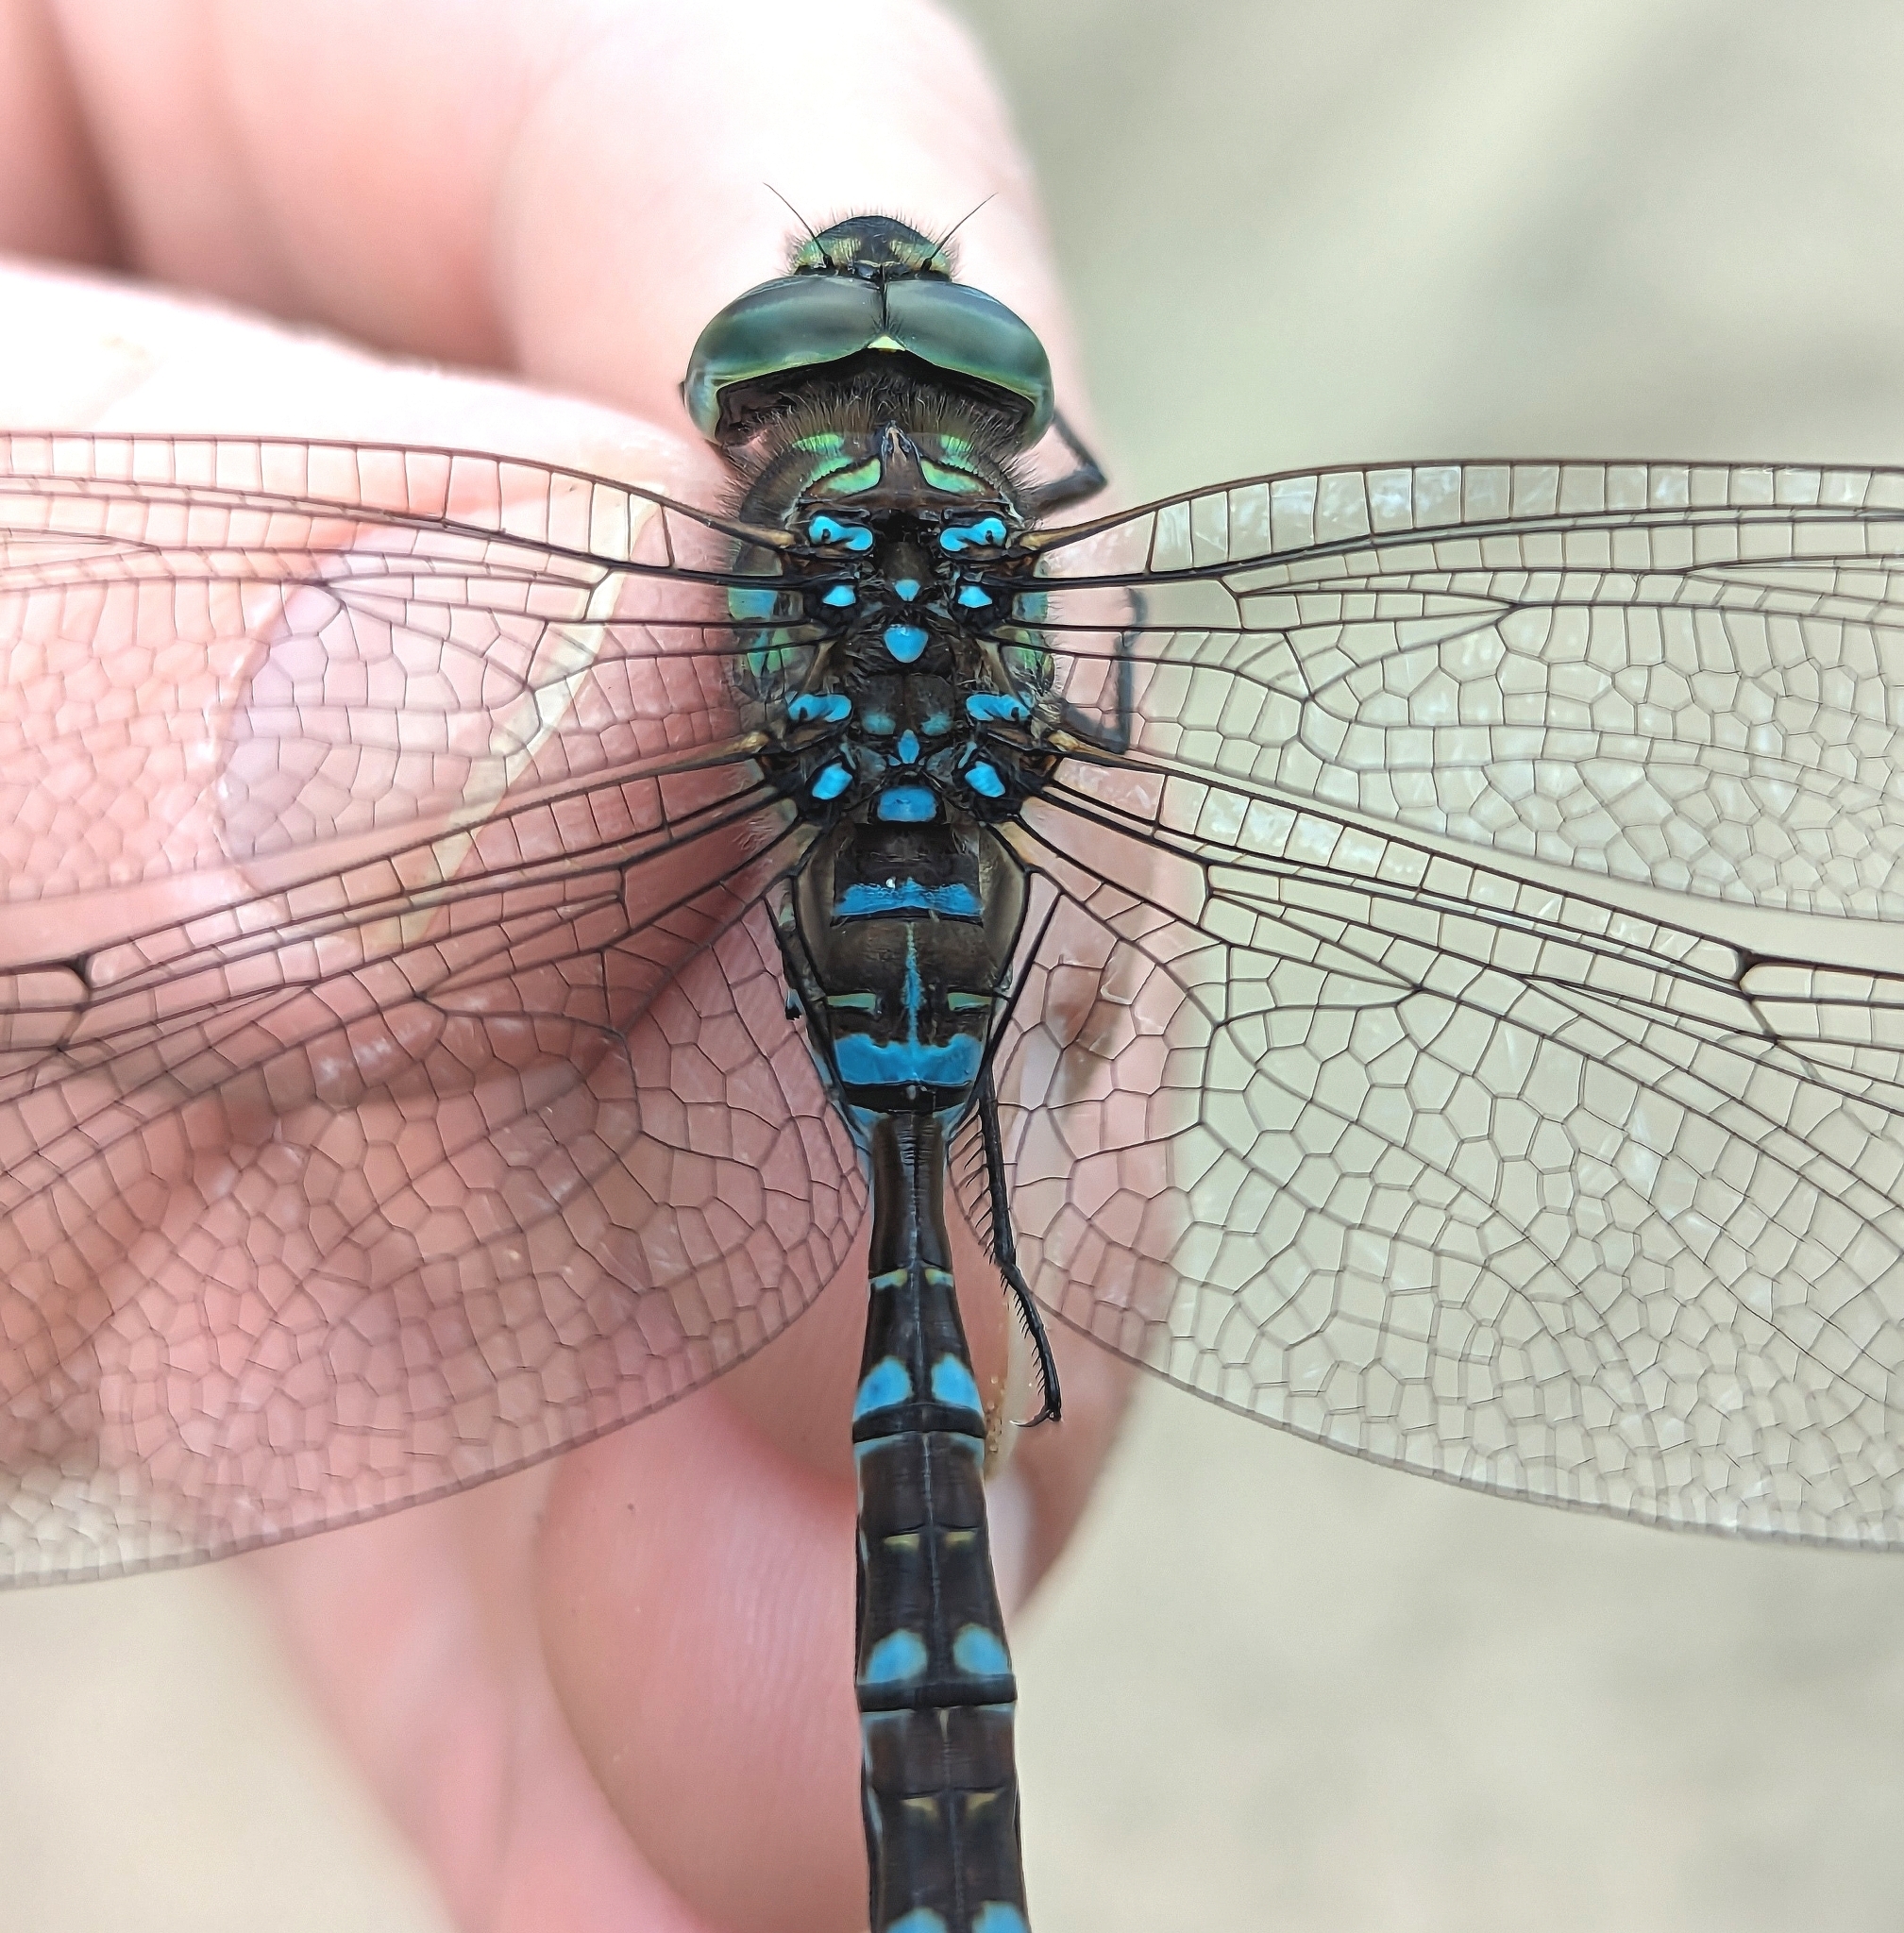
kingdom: Animalia
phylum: Arthropoda
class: Insecta
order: Odonata
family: Aeshnidae
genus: Aeshna
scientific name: Aeshna canadensis
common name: Canada darner
